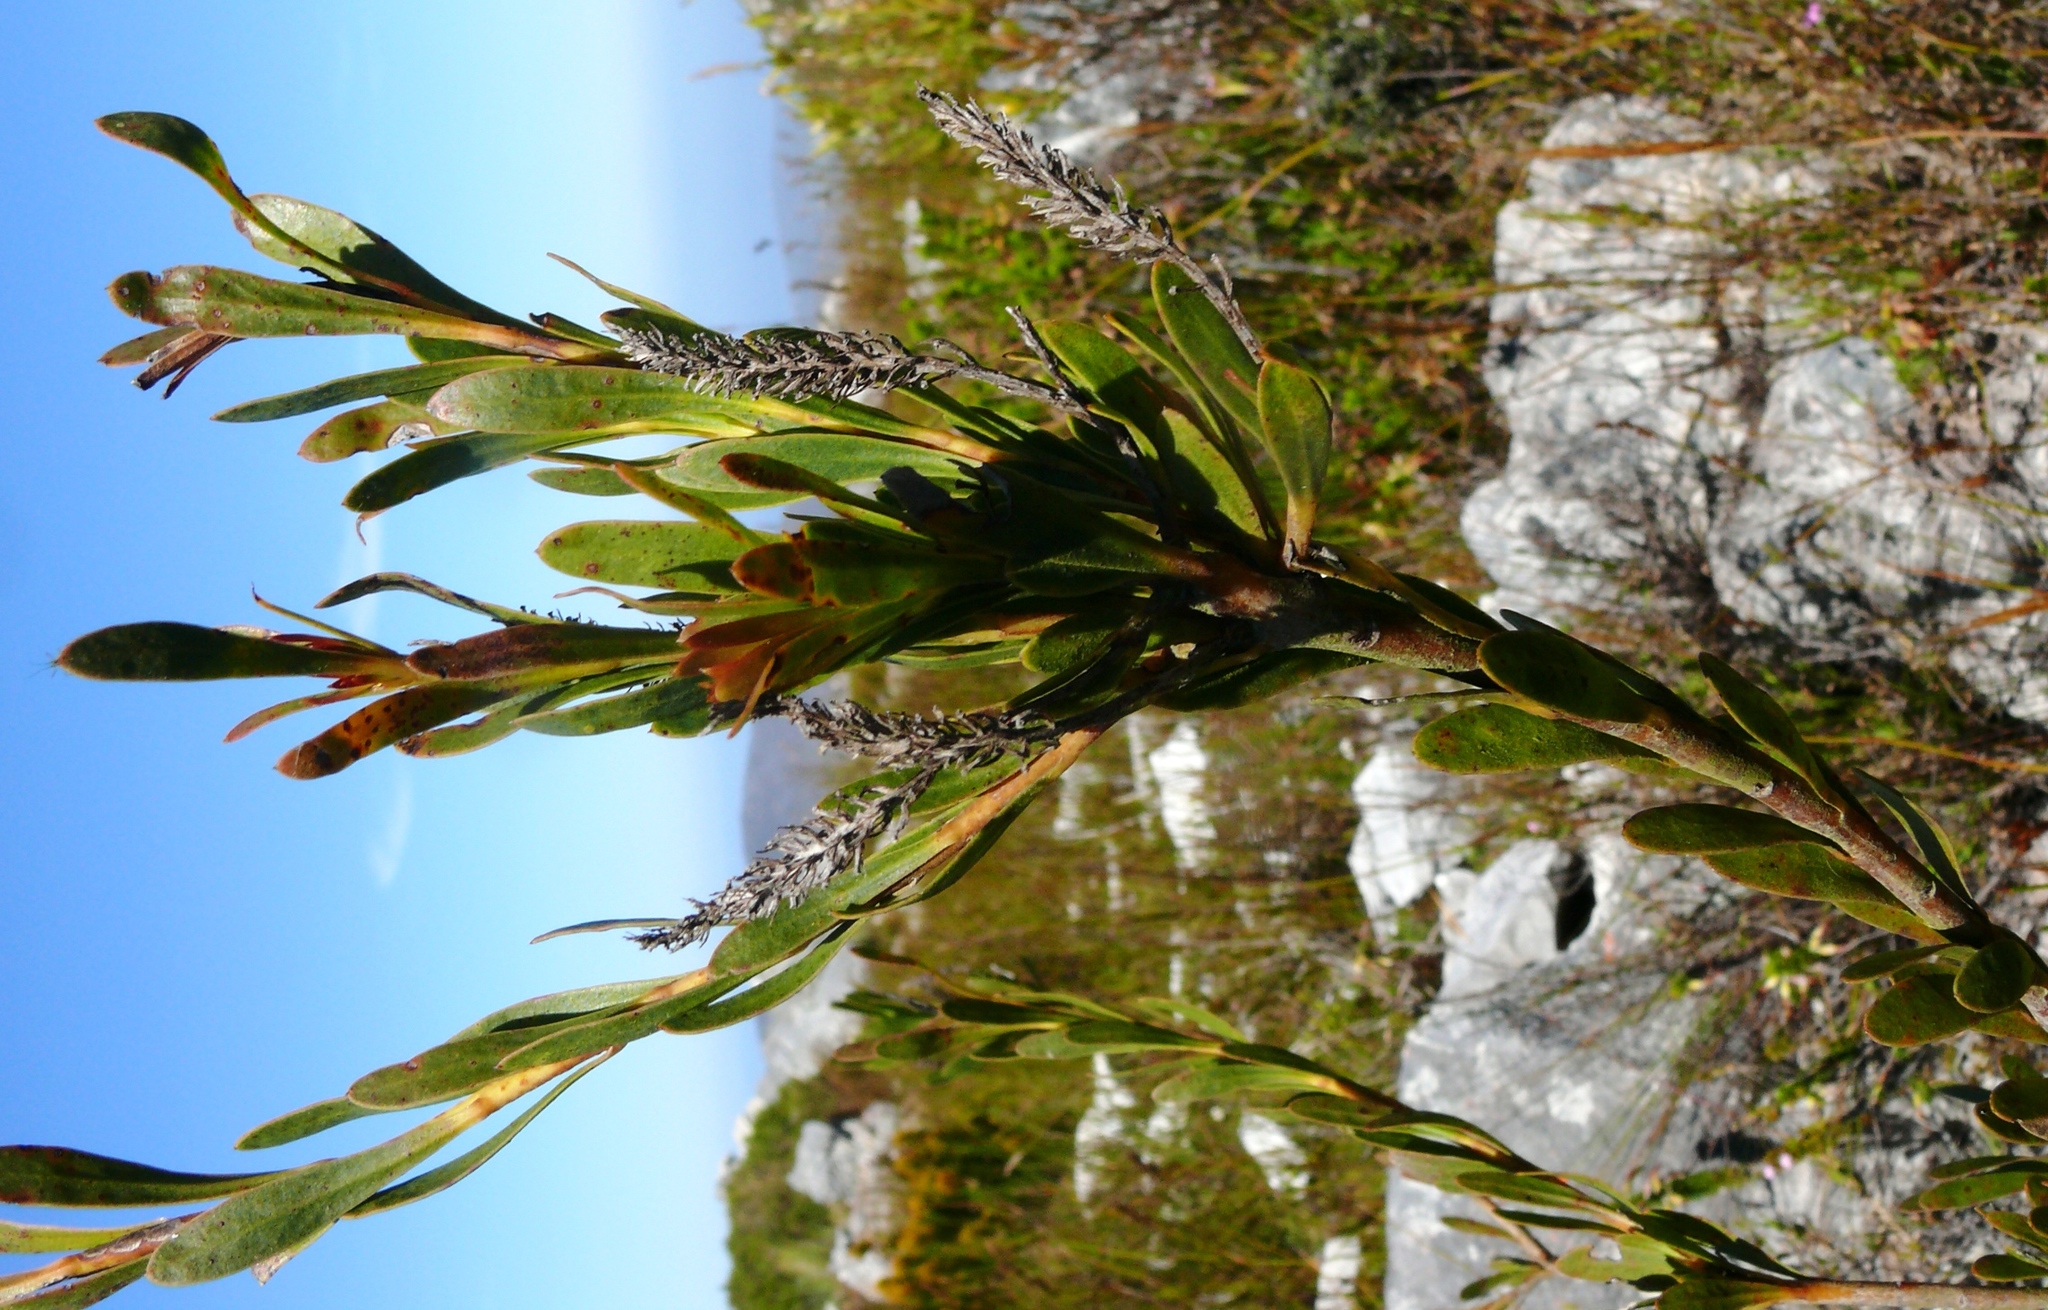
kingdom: Plantae
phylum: Tracheophyta
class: Magnoliopsida
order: Proteales
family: Proteaceae
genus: Aulax
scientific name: Aulax umbellata
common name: Broad-leaf featherbush
